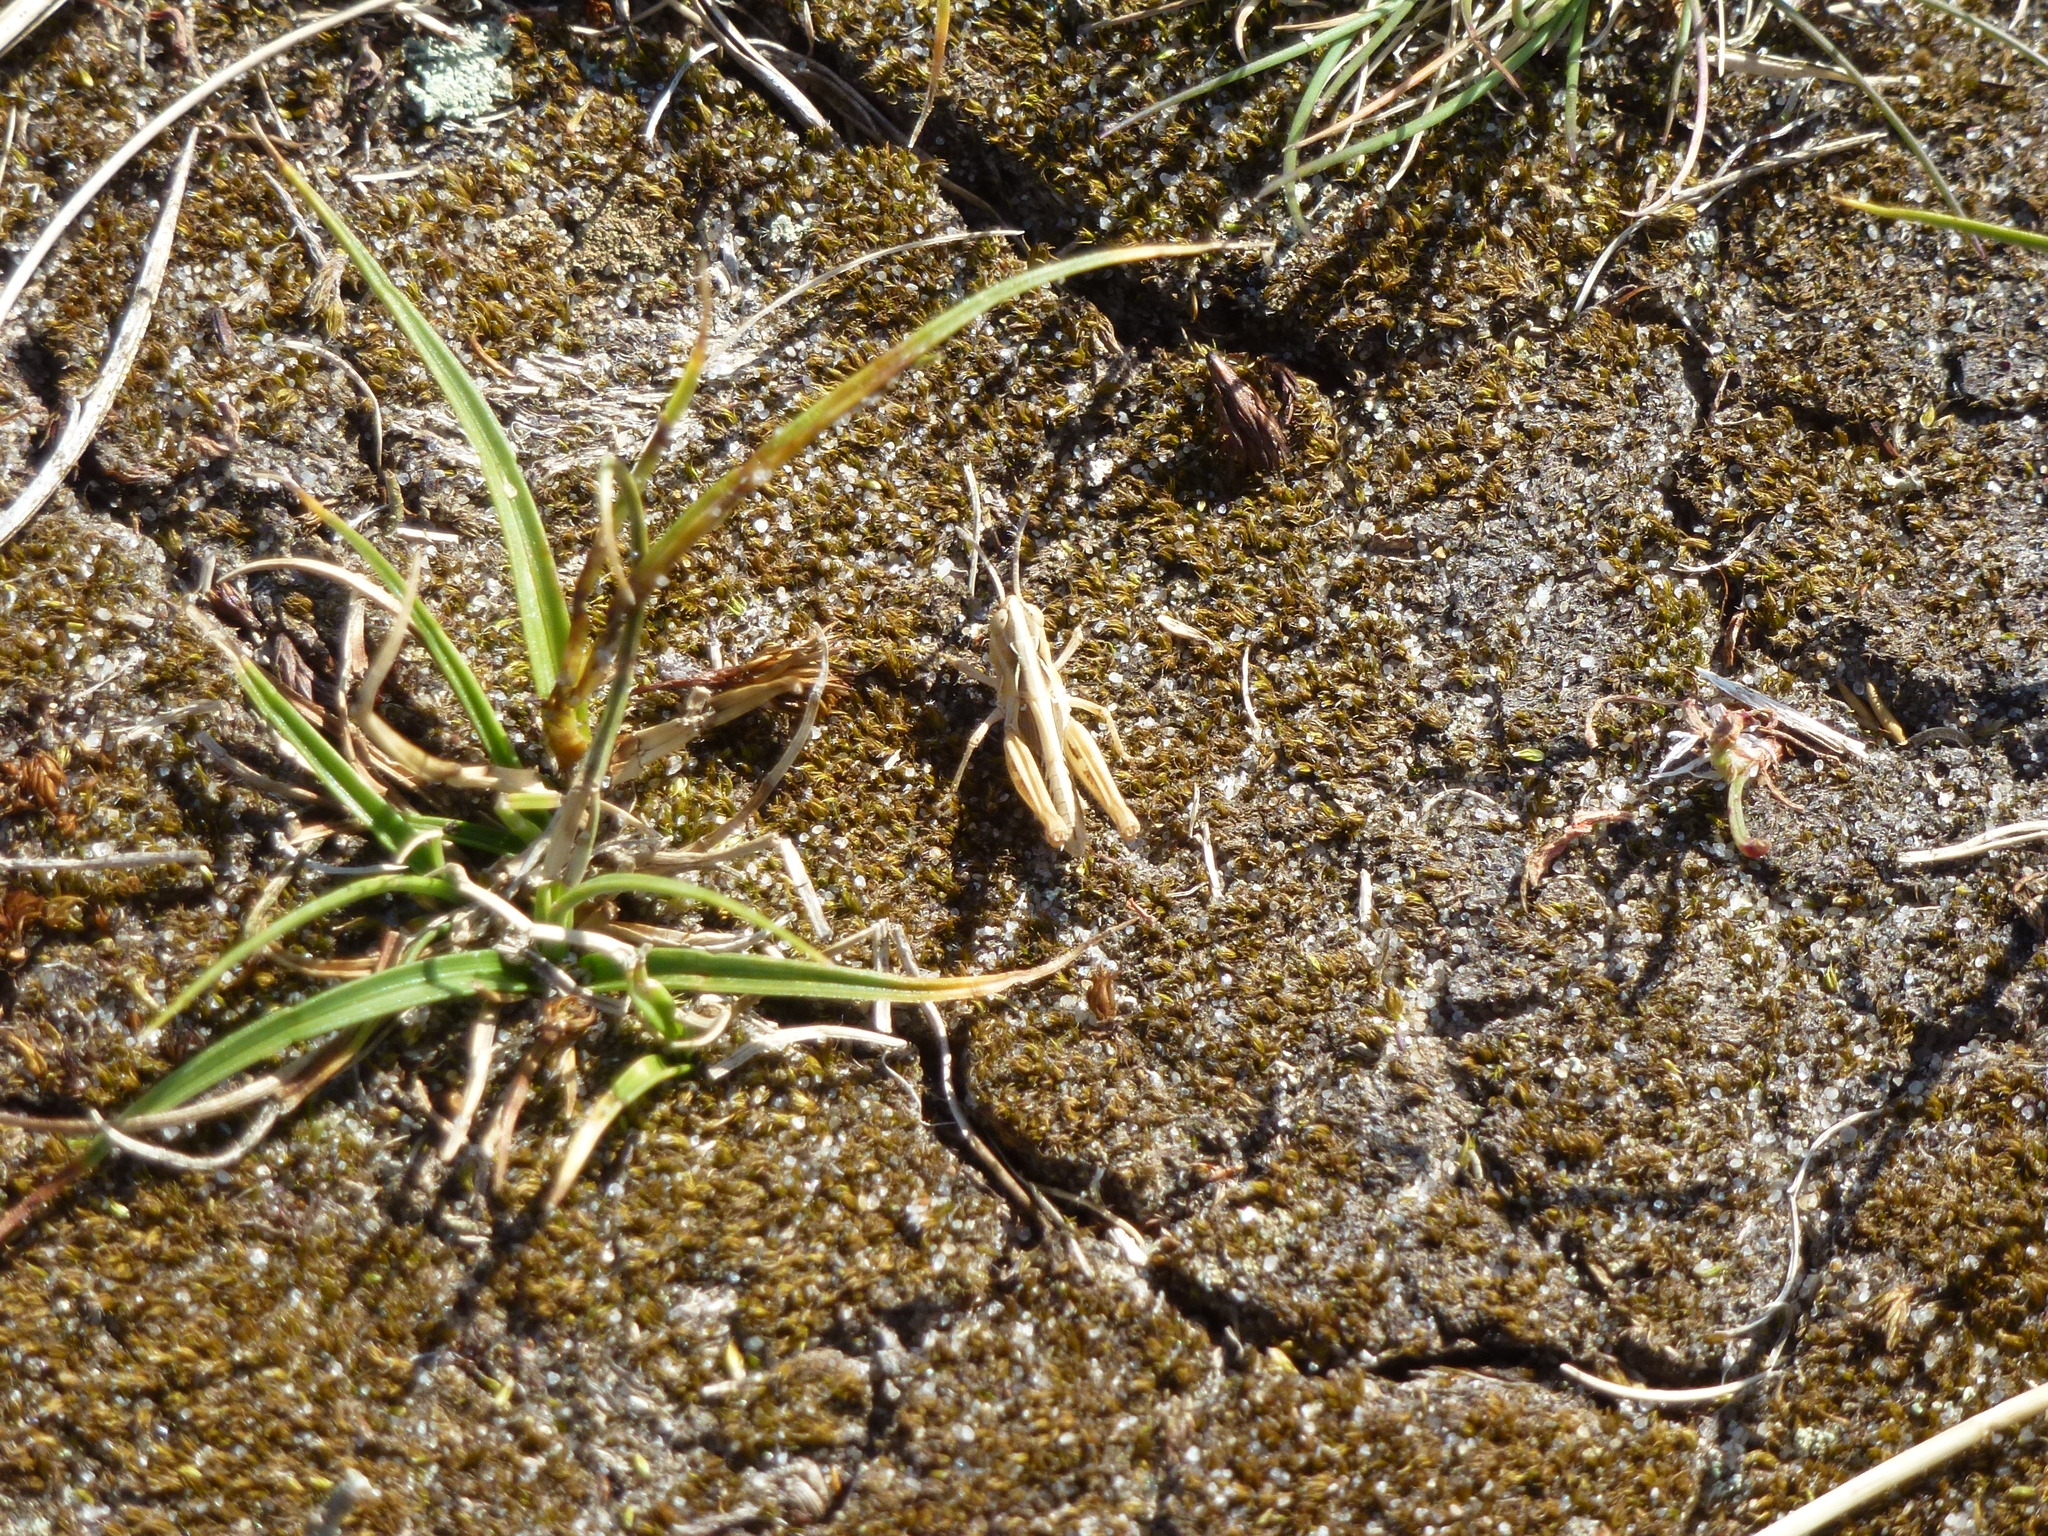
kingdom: Animalia
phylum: Arthropoda
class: Insecta
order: Orthoptera
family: Acrididae
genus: Chorthippus
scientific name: Chorthippus brunneus
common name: Field grasshopper
